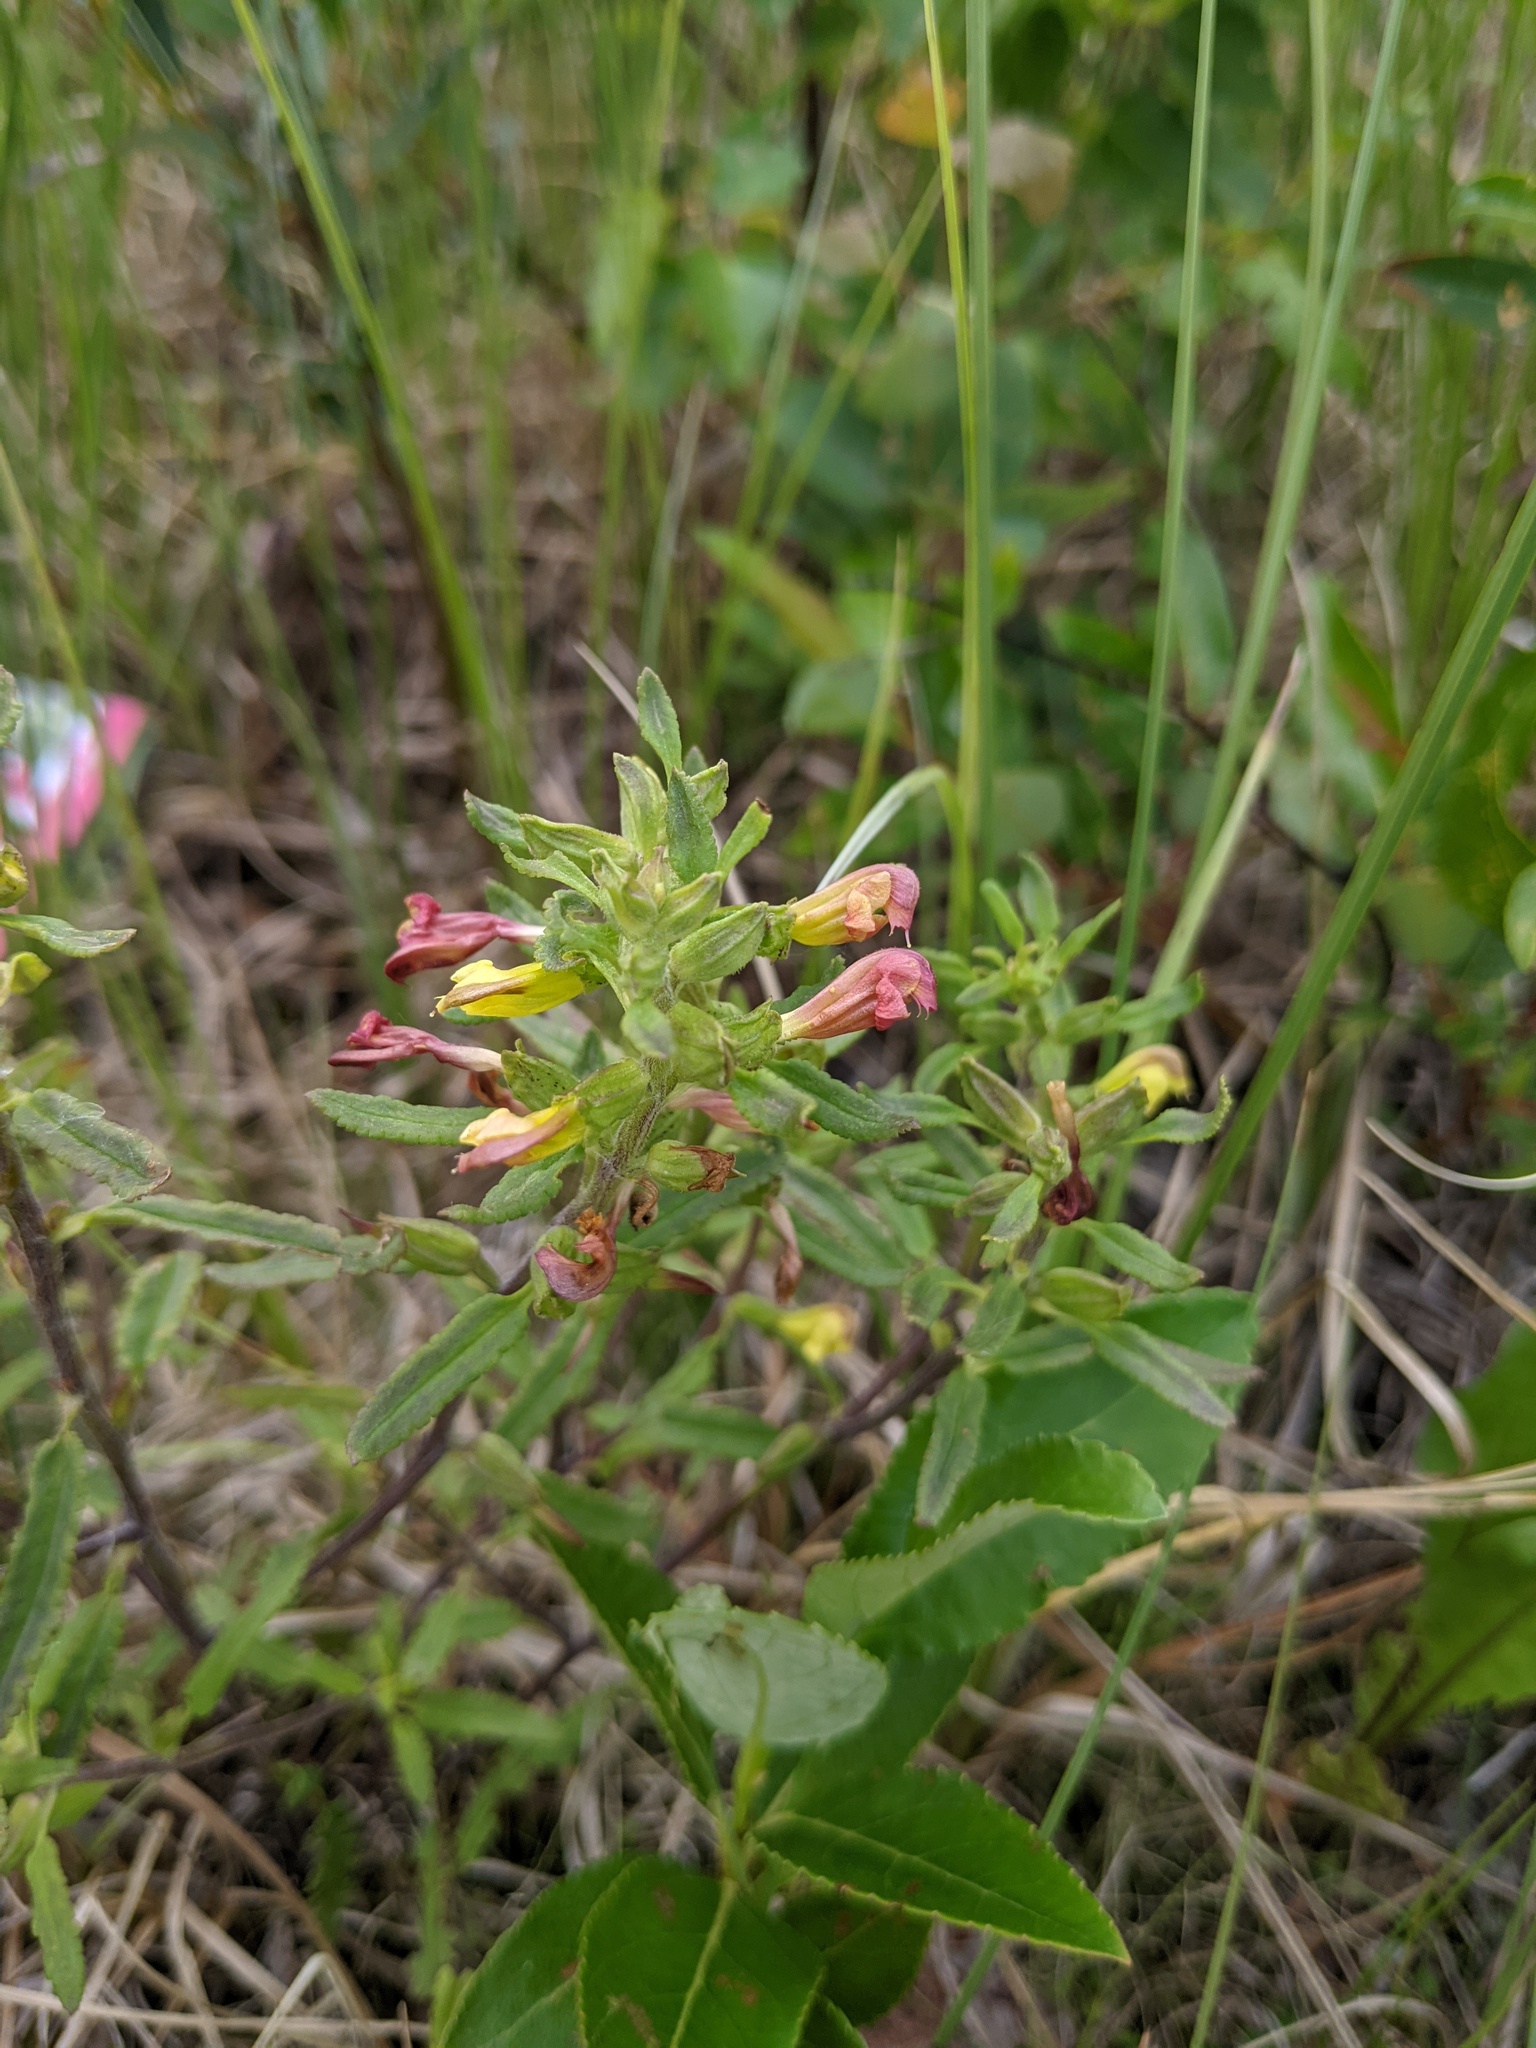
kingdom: Plantae
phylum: Tracheophyta
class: Magnoliopsida
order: Lamiales
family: Orobanchaceae
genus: Pedicularis
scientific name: Pedicularis labradorica
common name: Labrador lousewort
